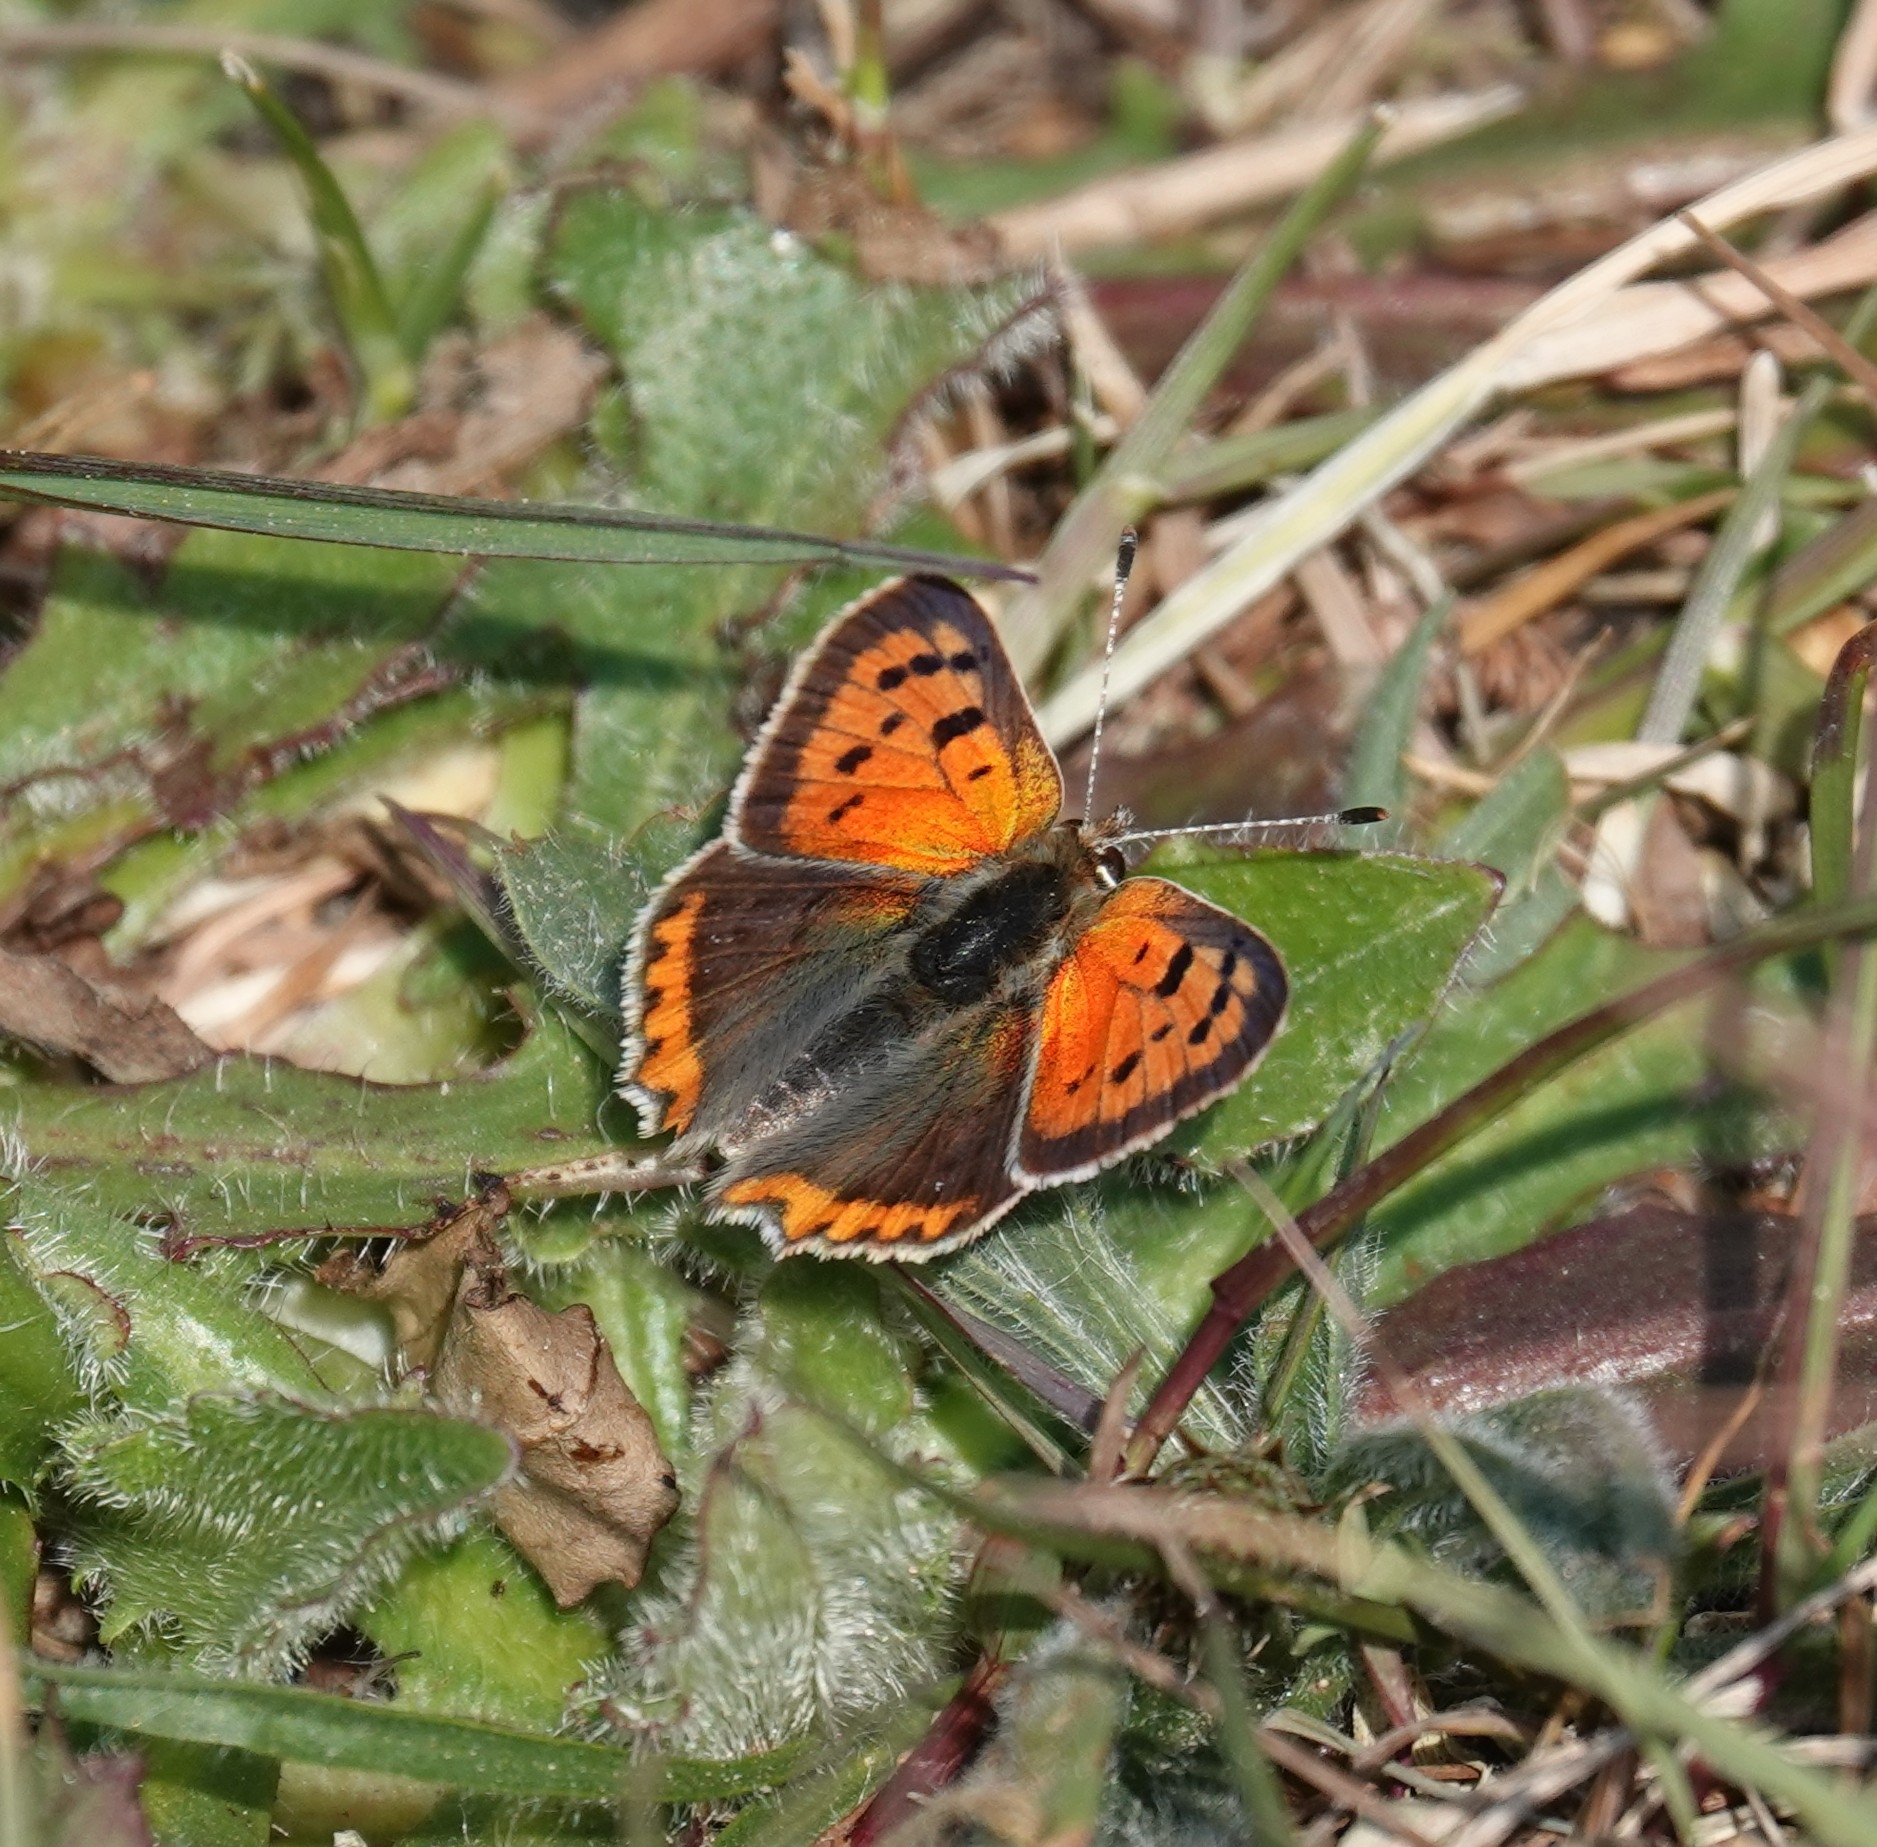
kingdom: Animalia
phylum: Arthropoda
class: Insecta
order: Lepidoptera
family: Lycaenidae
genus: Lycaena
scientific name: Lycaena phlaeas
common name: Small copper
